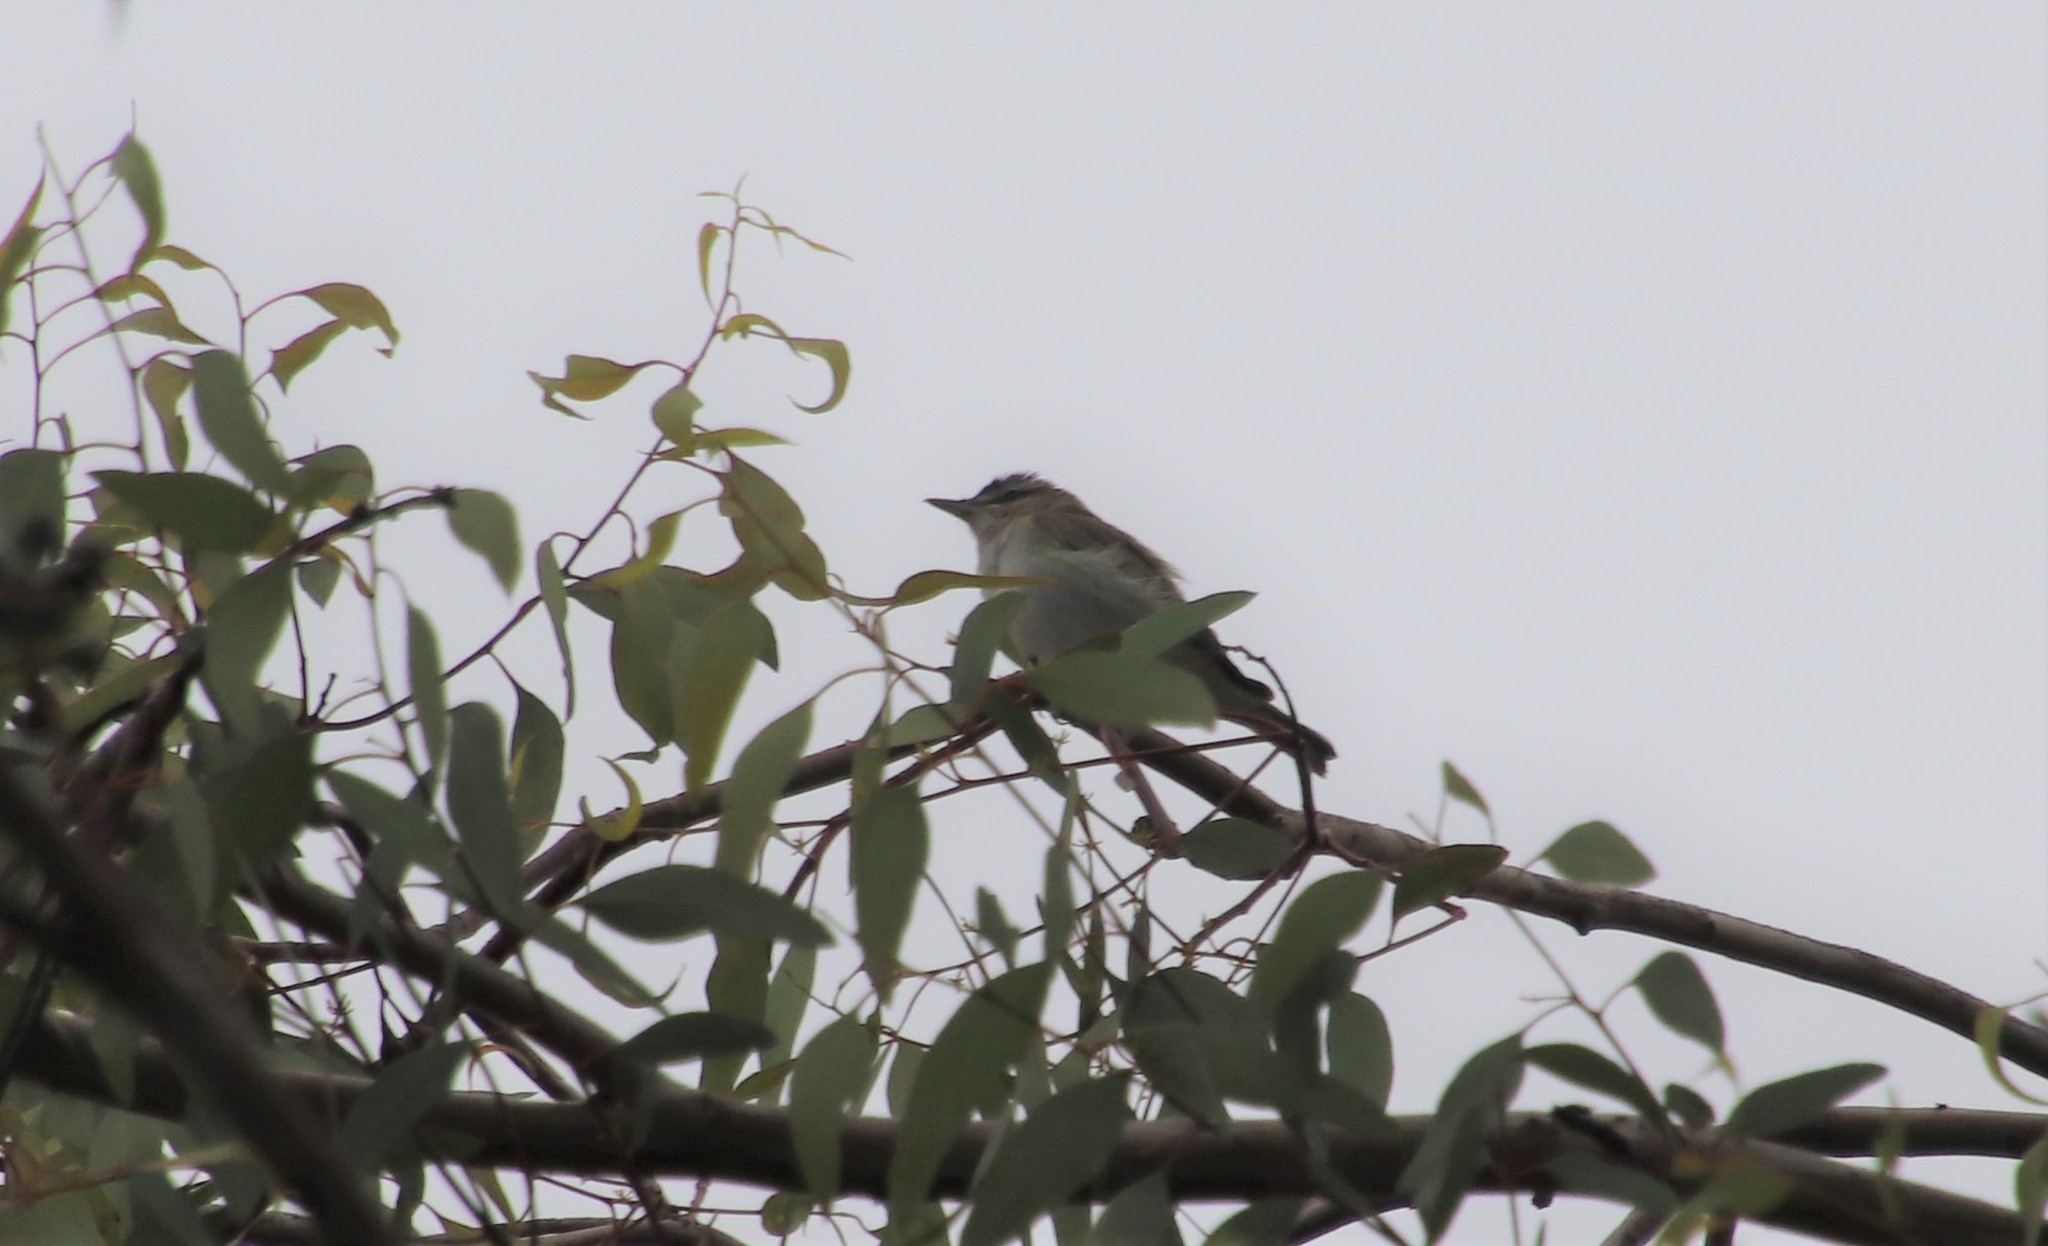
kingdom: Animalia
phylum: Chordata
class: Aves
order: Passeriformes
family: Vireonidae
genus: Vireo
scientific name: Vireo olivaceus
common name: Red-eyed vireo
